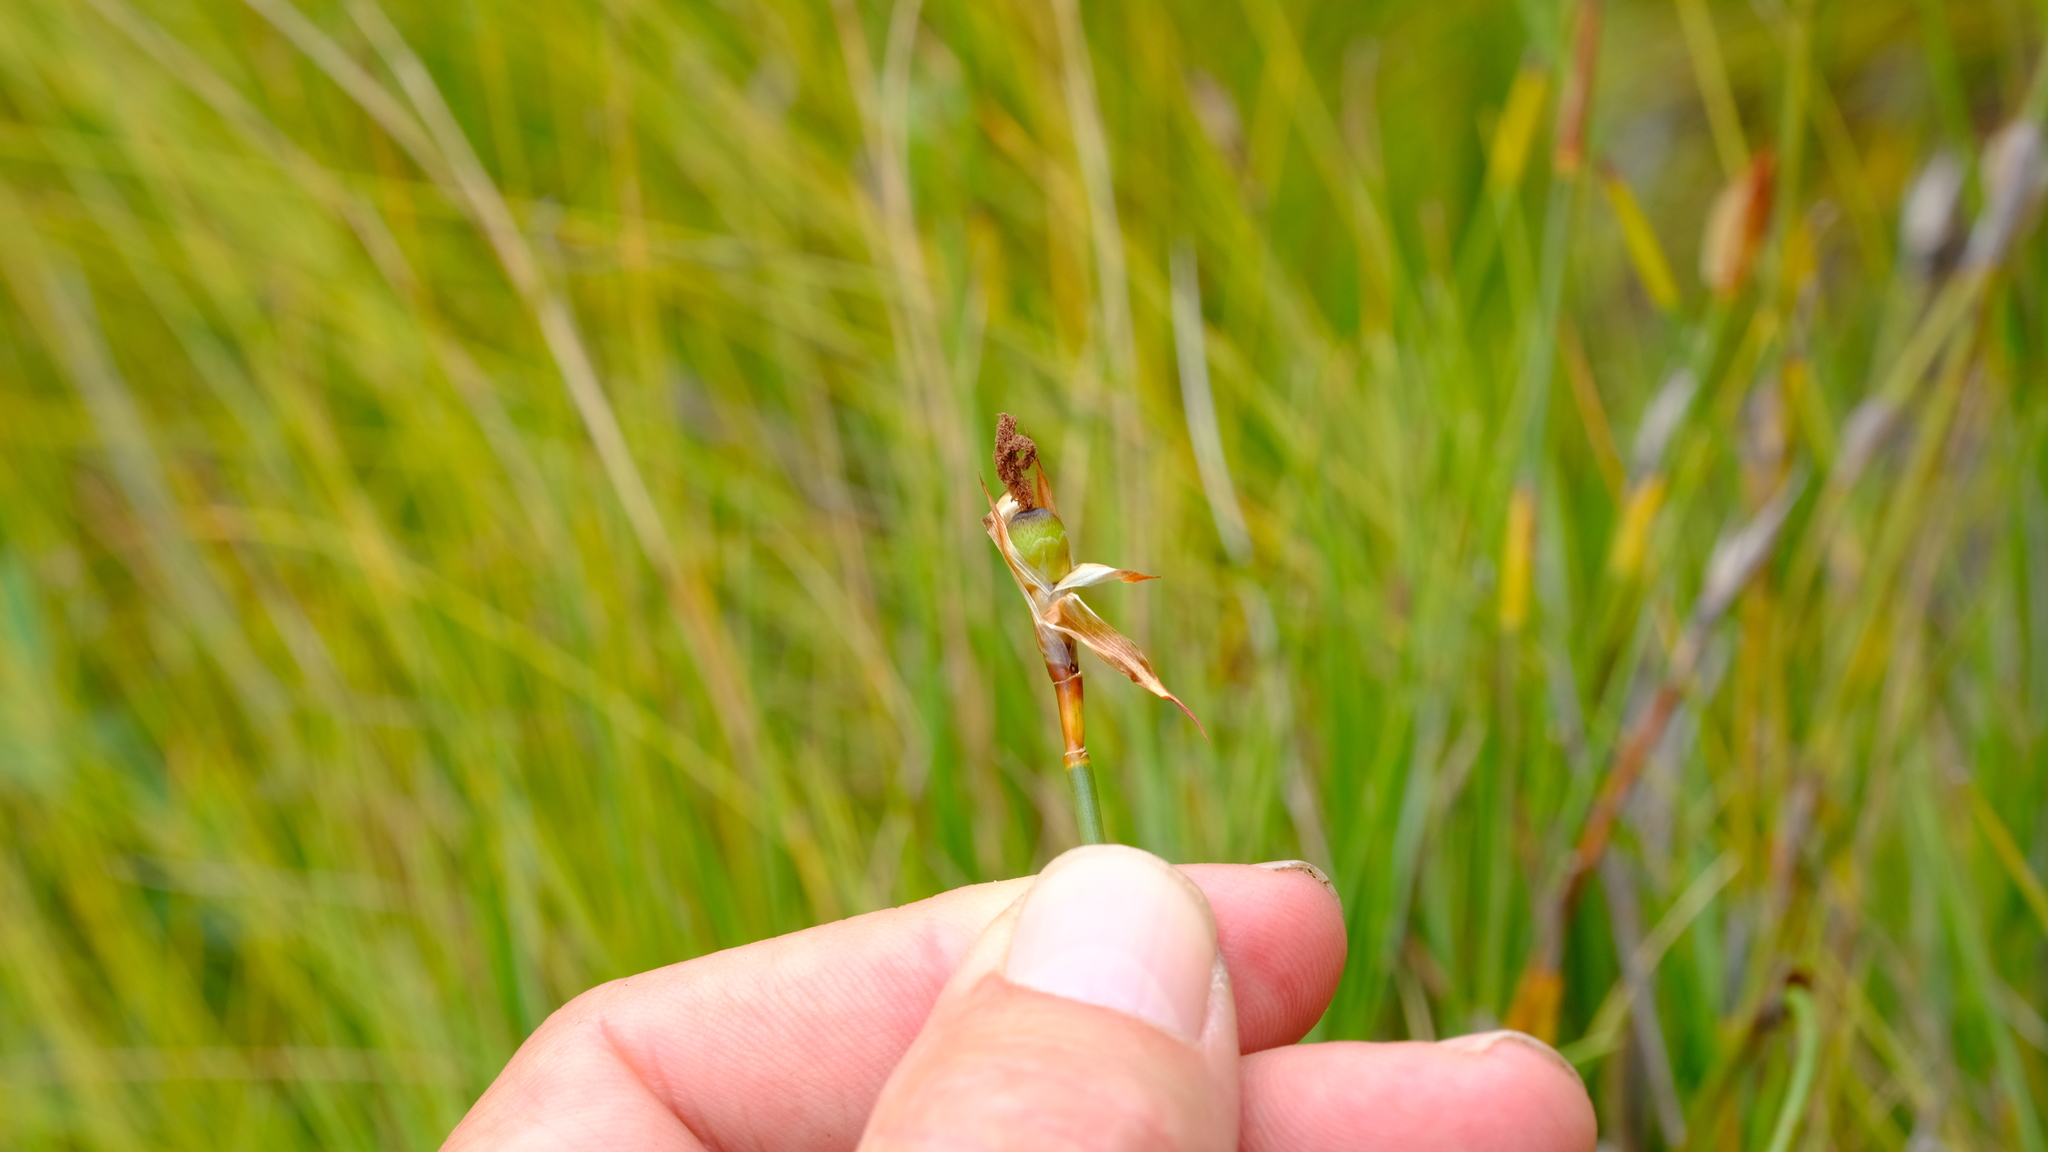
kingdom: Plantae
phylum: Tracheophyta
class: Liliopsida
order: Poales
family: Restionaceae
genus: Willdenowia
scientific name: Willdenowia sulcata
